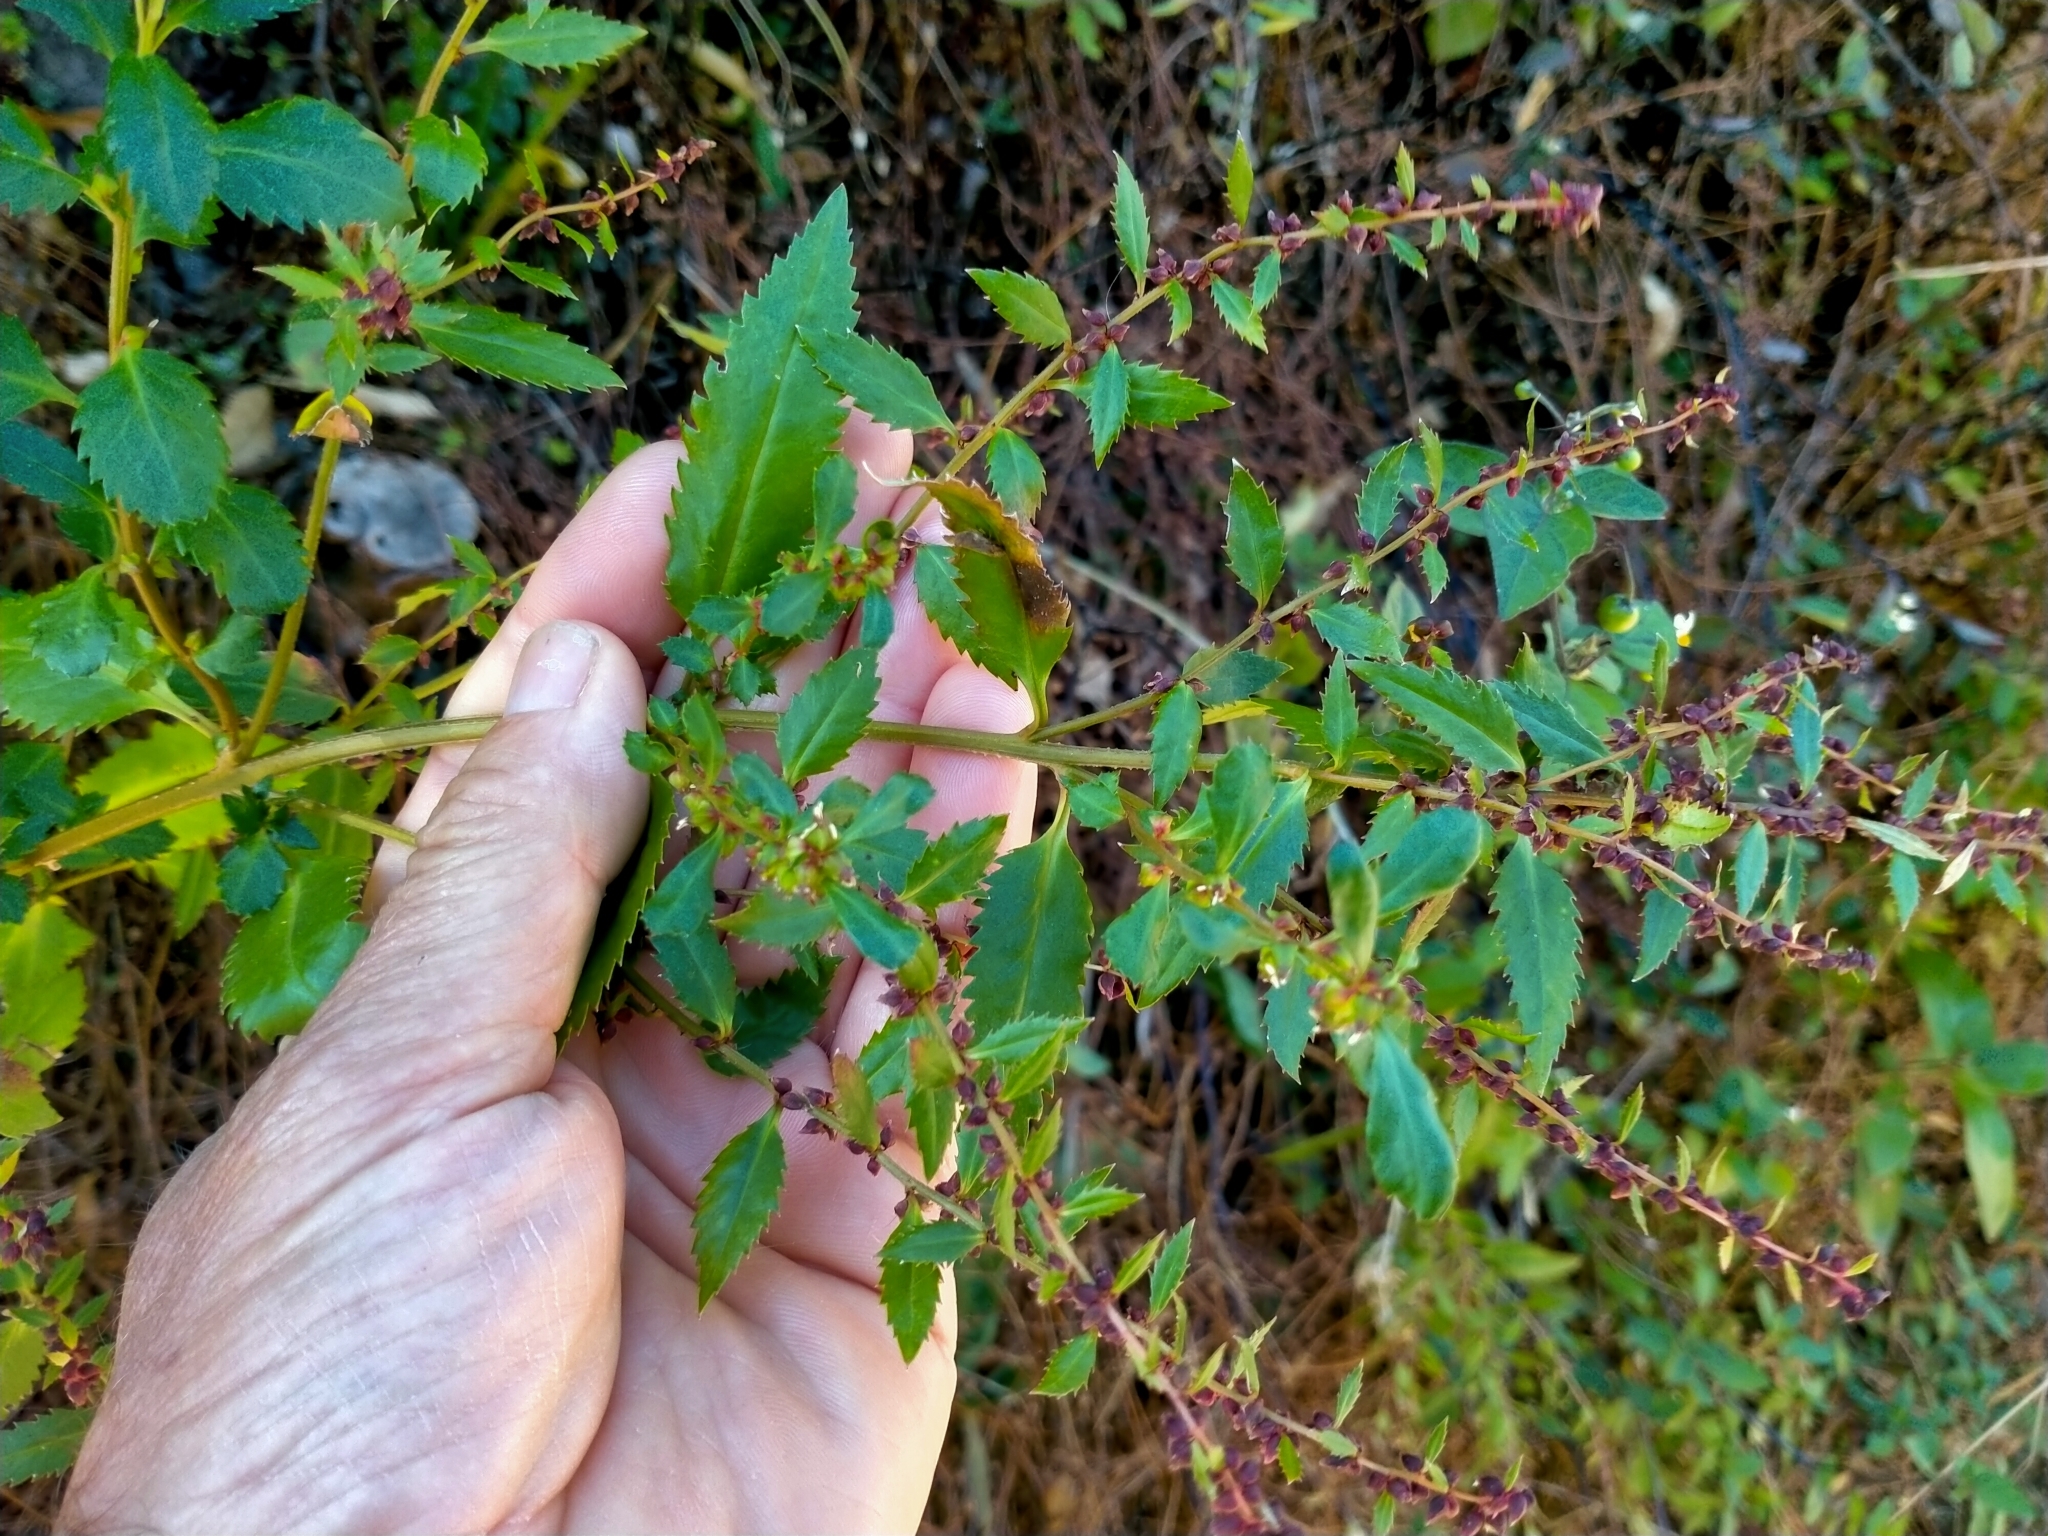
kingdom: Plantae
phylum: Tracheophyta
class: Magnoliopsida
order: Saxifragales
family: Haloragaceae
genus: Haloragis
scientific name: Haloragis erecta
